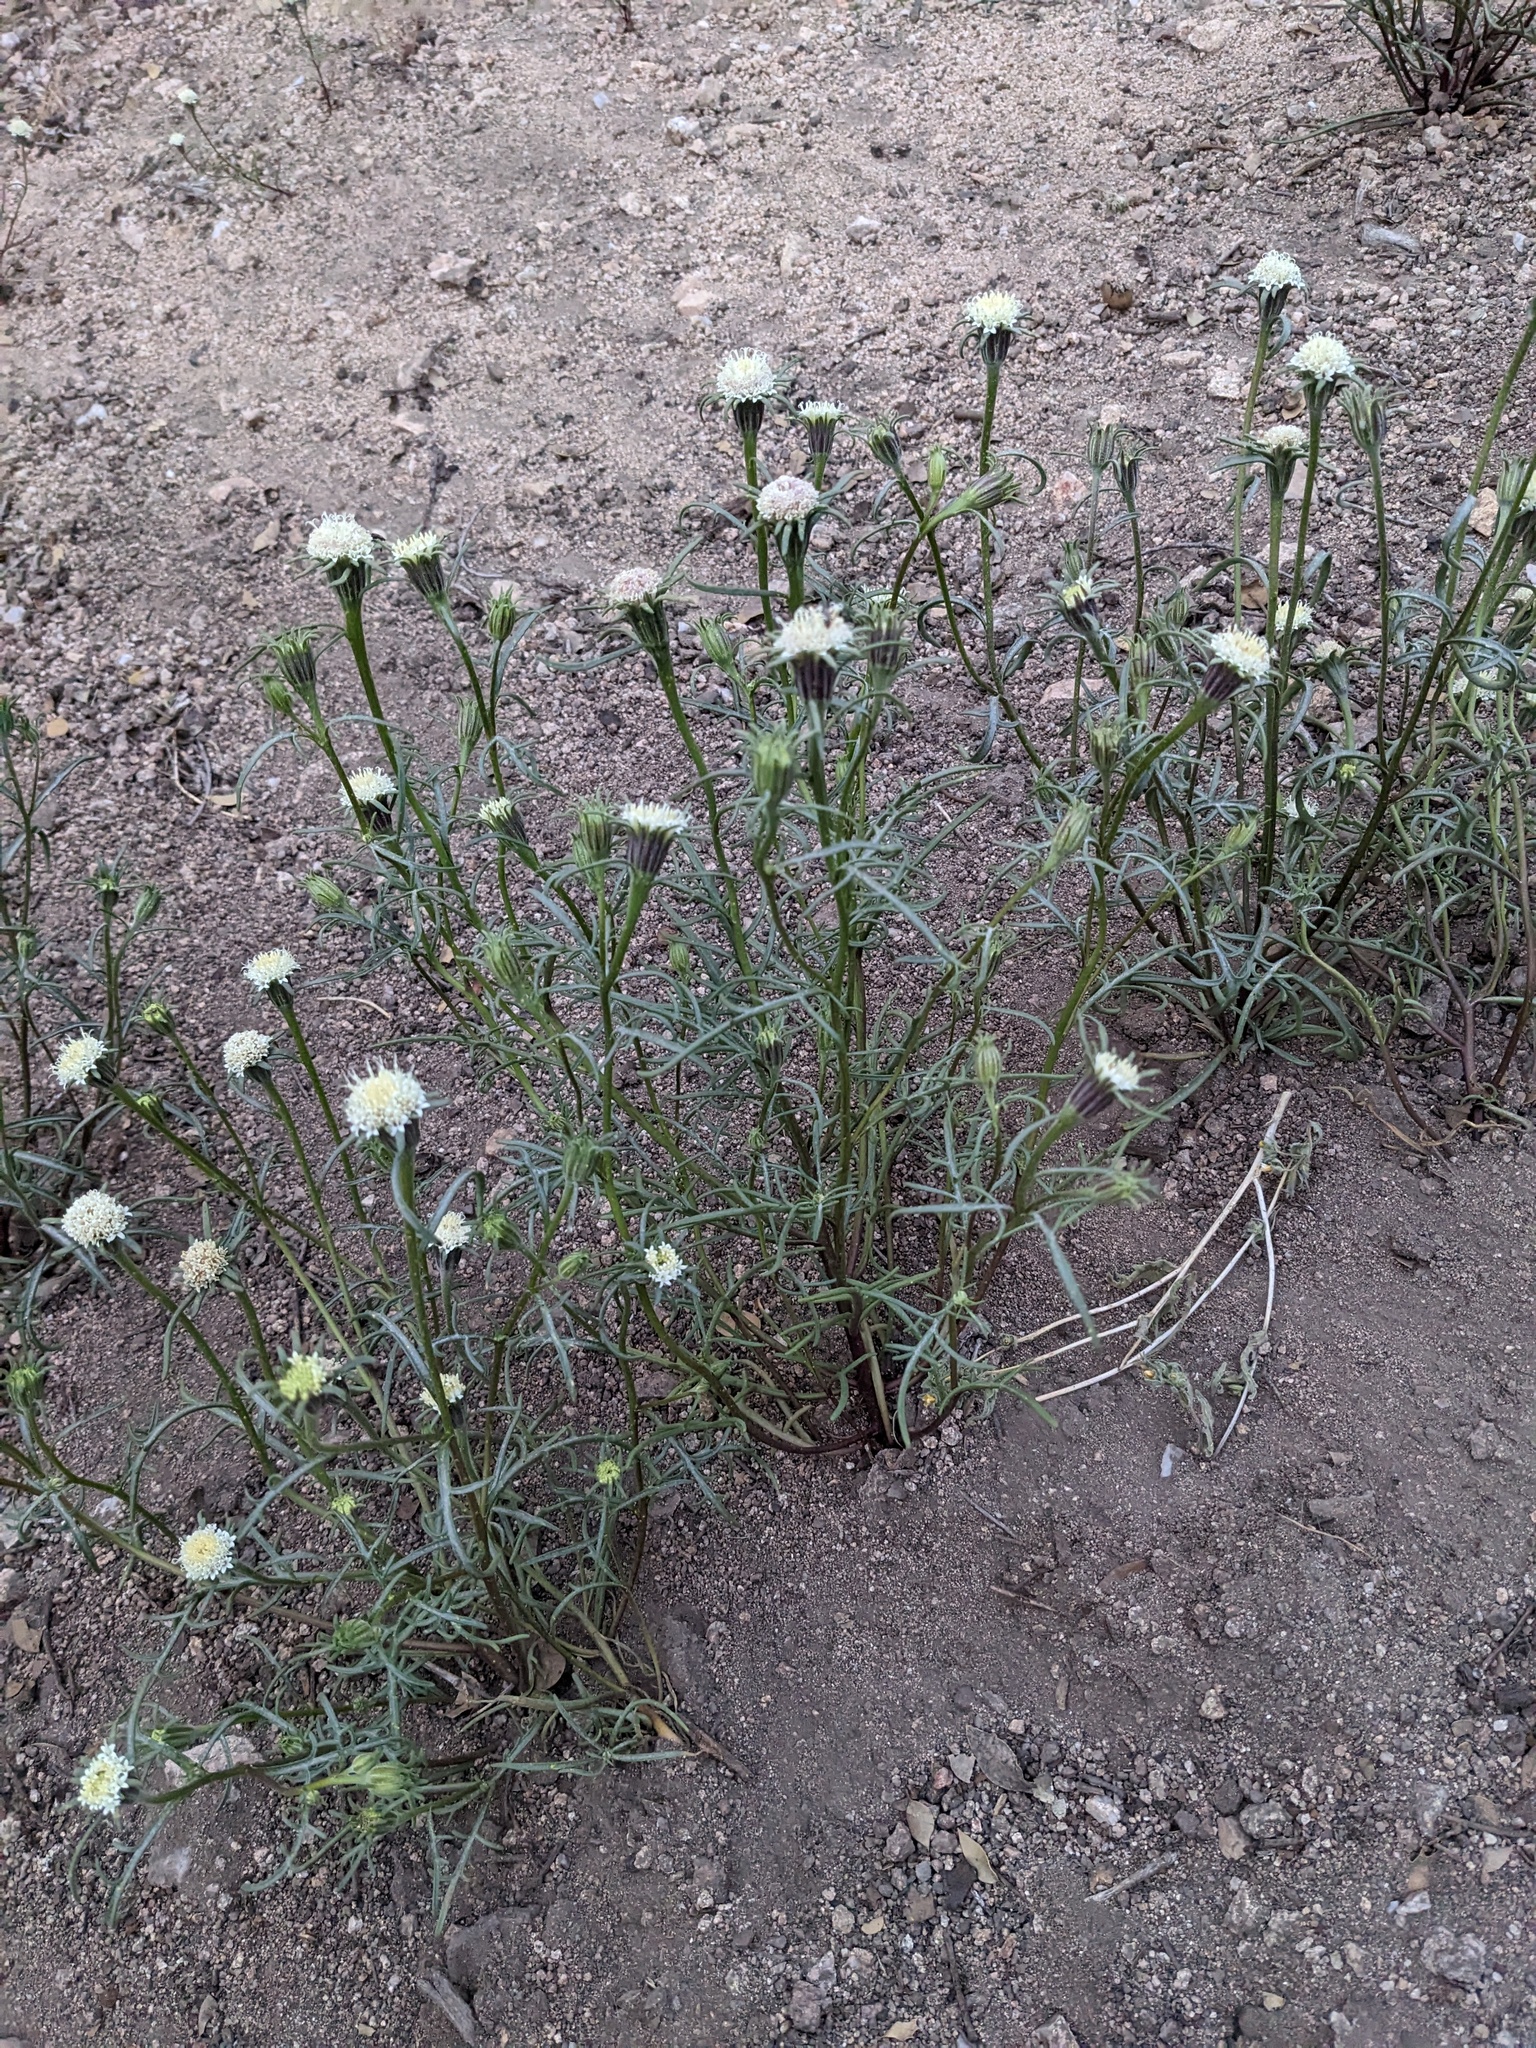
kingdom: Plantae
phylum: Tracheophyta
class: Magnoliopsida
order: Asterales
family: Asteraceae
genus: Chaenactis
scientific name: Chaenactis xantiana
